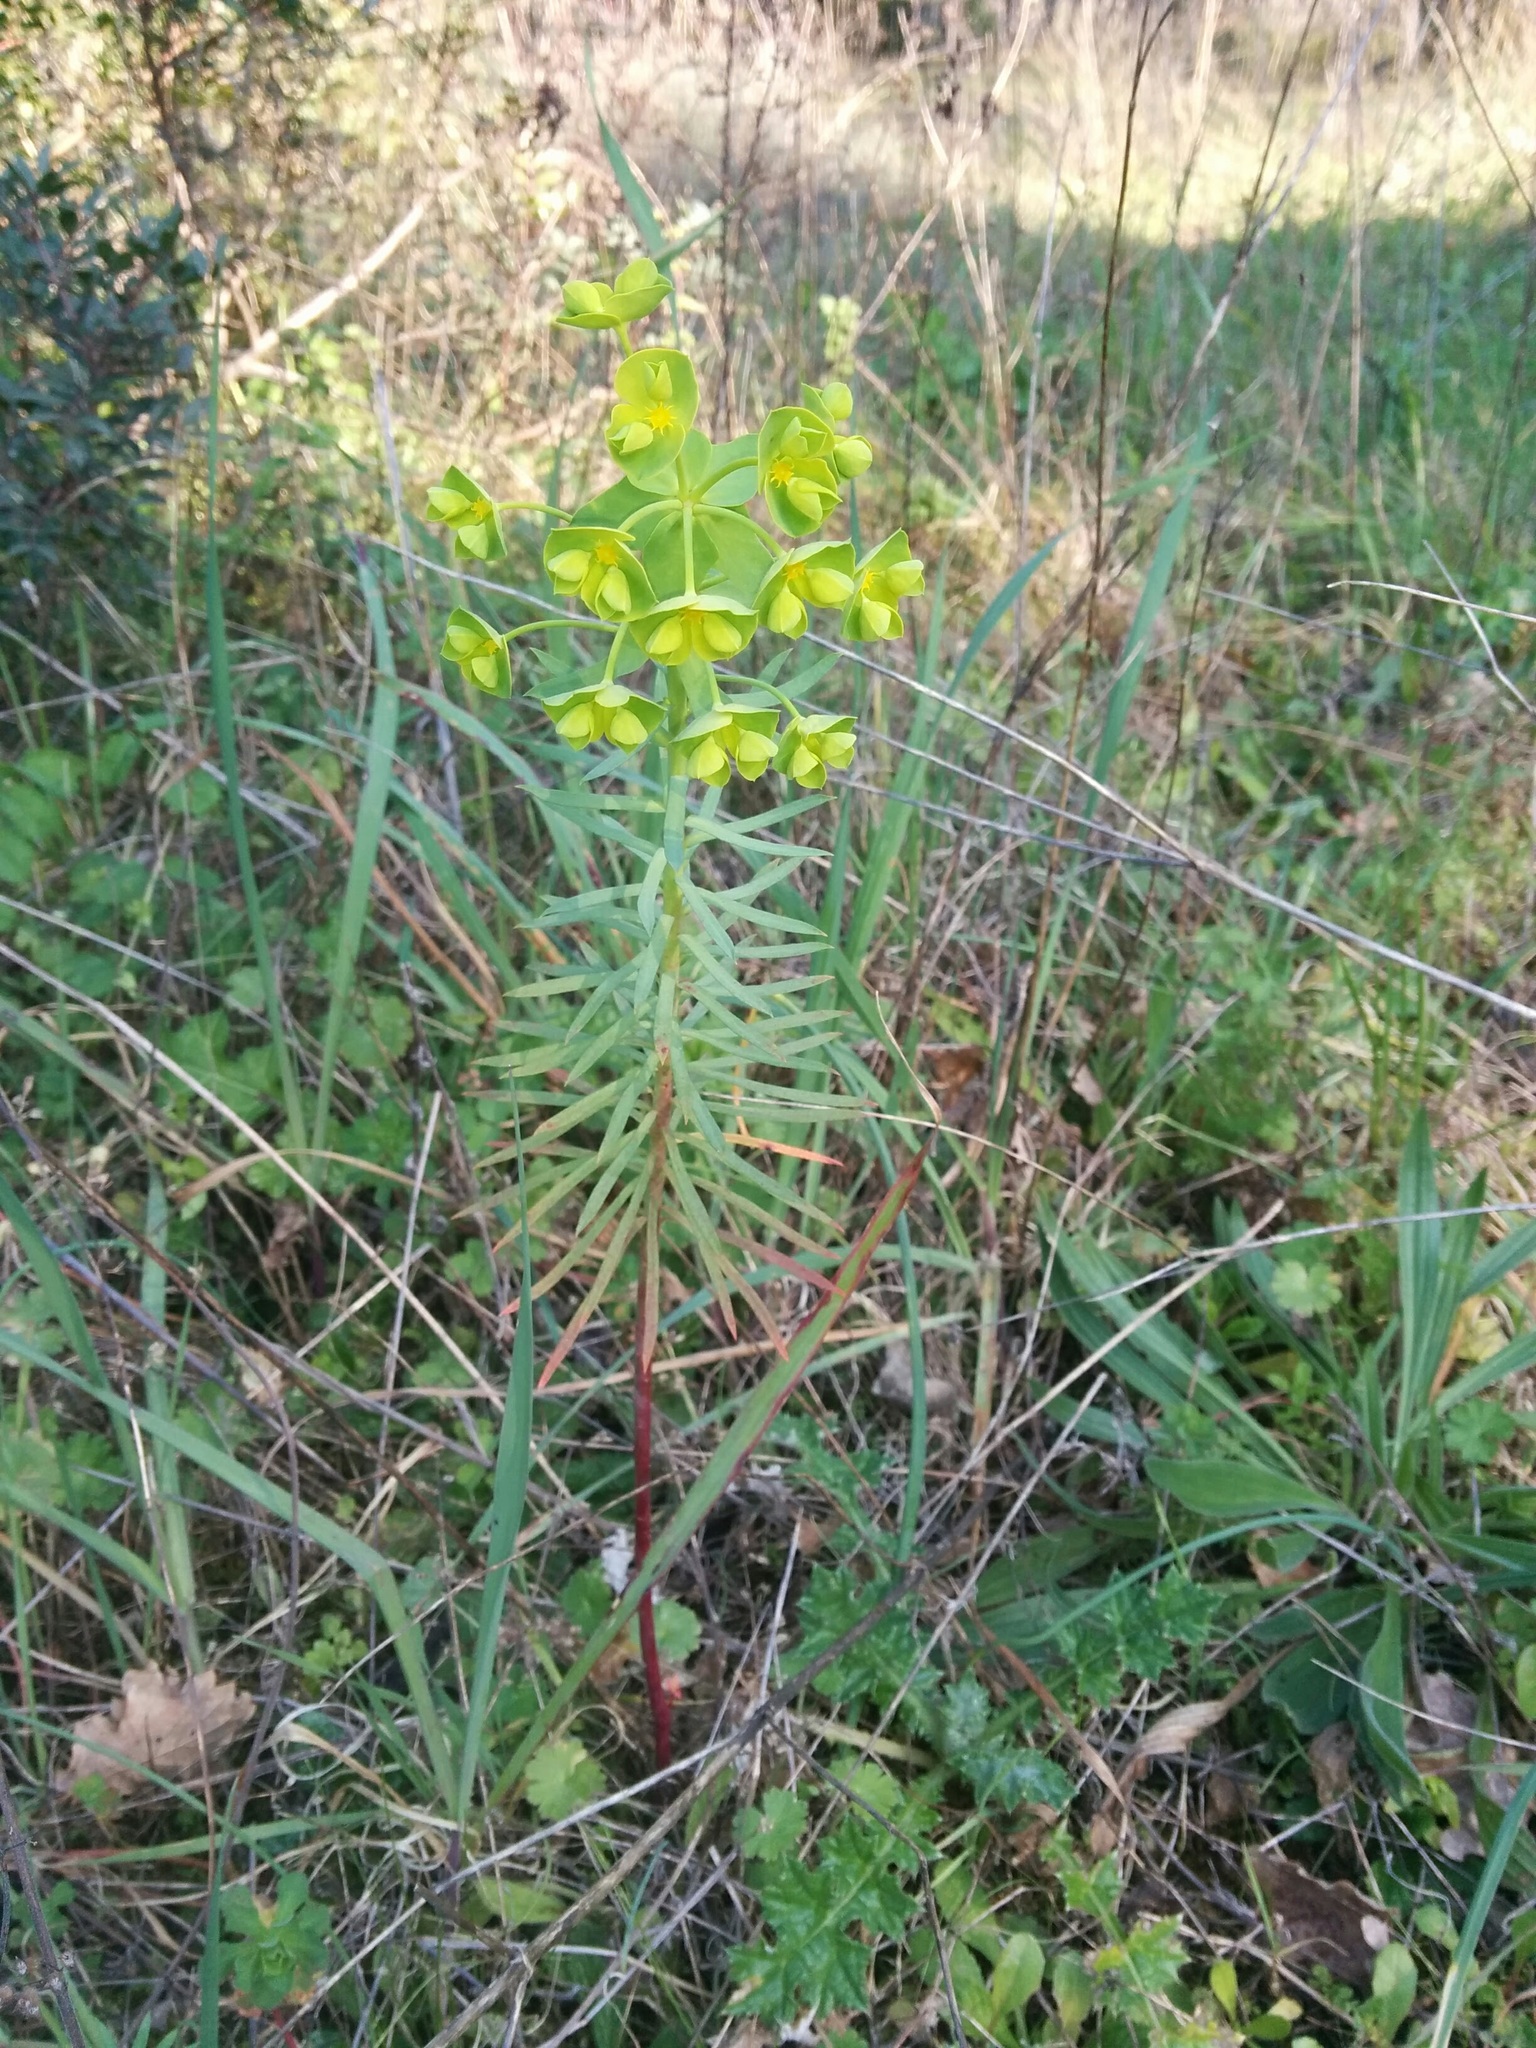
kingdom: Plantae
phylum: Tracheophyta
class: Magnoliopsida
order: Malpighiales
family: Euphorbiaceae
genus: Euphorbia
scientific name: Euphorbia cyparissias
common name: Cypress spurge
